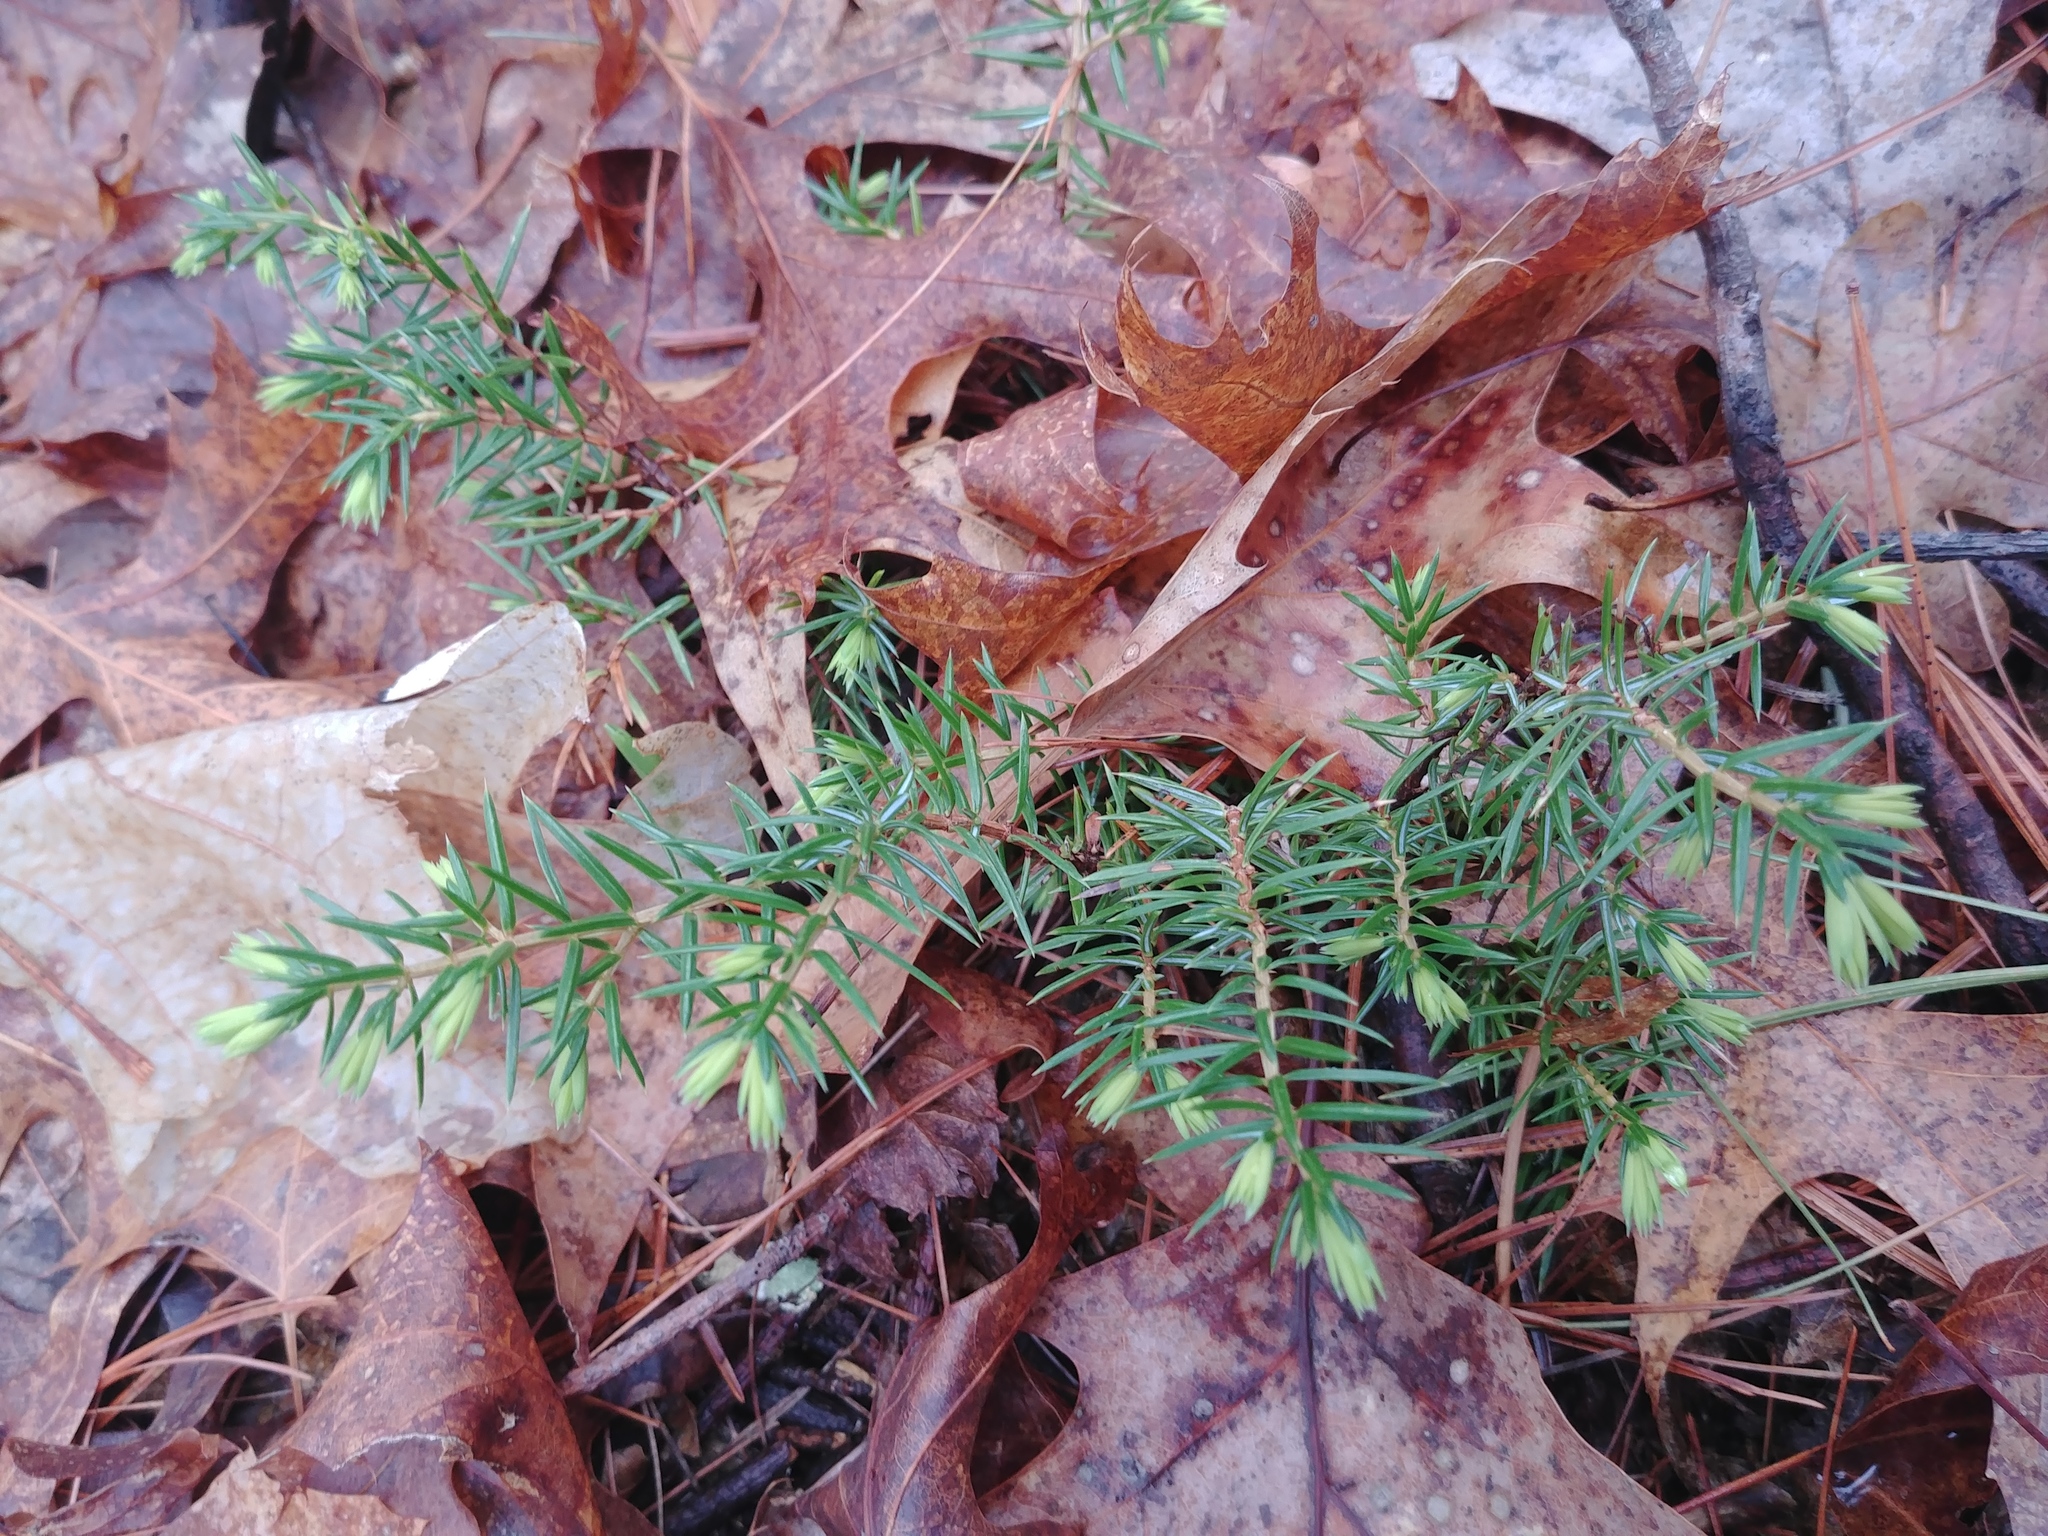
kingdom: Plantae
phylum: Tracheophyta
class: Pinopsida
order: Pinales
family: Cupressaceae
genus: Juniperus
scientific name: Juniperus communis
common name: Common juniper
